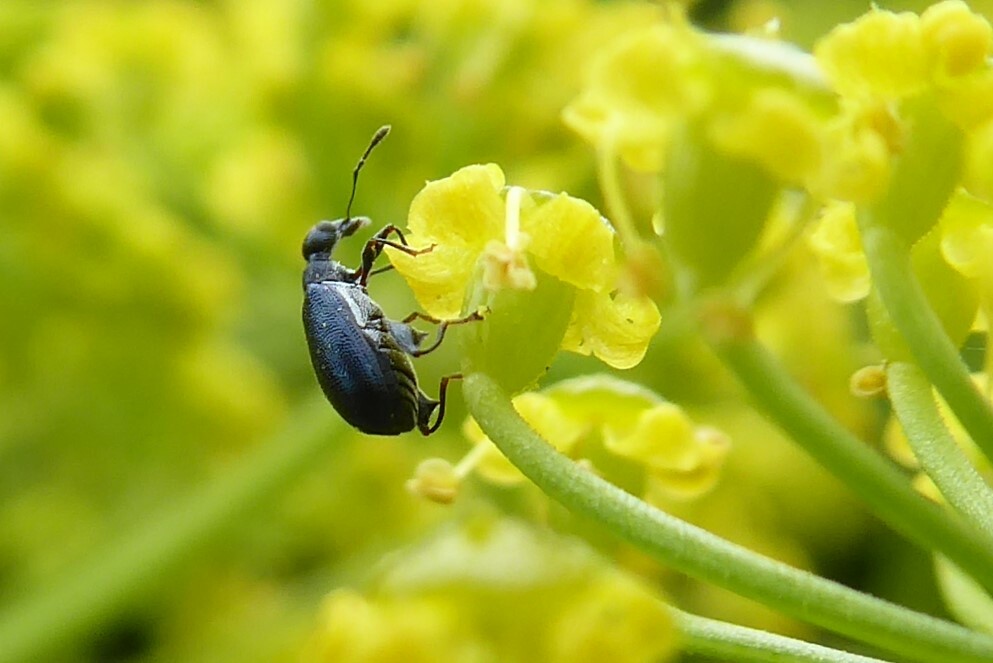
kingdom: Animalia
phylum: Arthropoda
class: Insecta
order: Coleoptera
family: Curculionidae
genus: Hoplocneme
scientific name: Hoplocneme punctatissima
